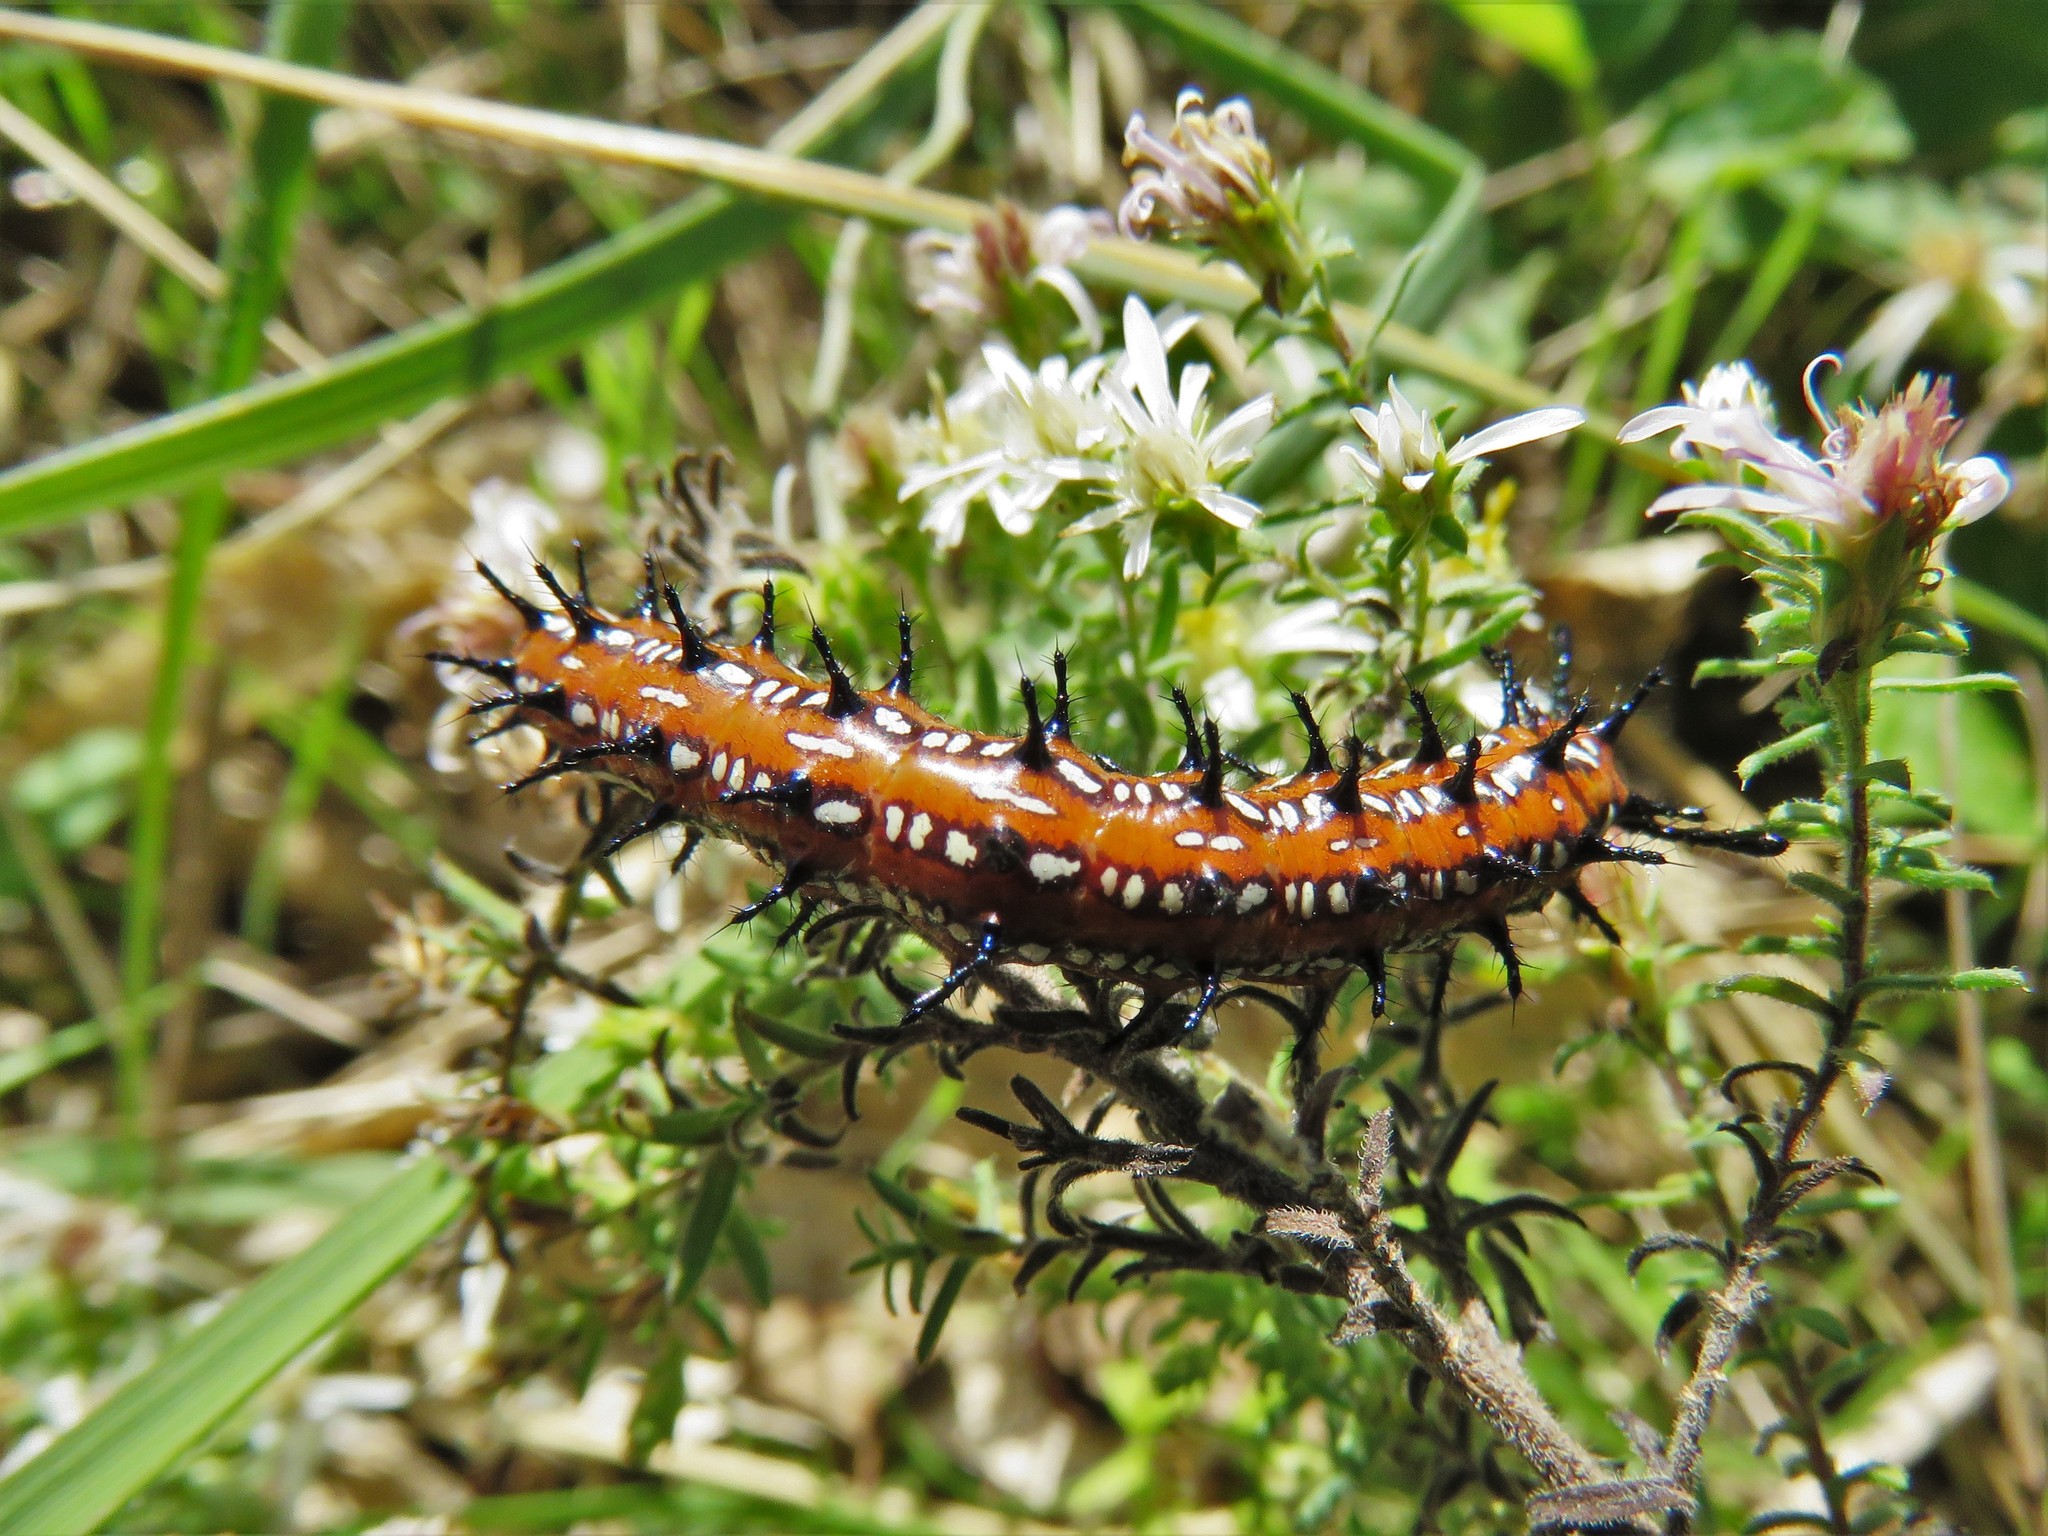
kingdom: Animalia
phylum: Arthropoda
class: Insecta
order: Lepidoptera
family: Nymphalidae
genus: Euptoieta
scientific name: Euptoieta claudia
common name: Variegated fritillary
